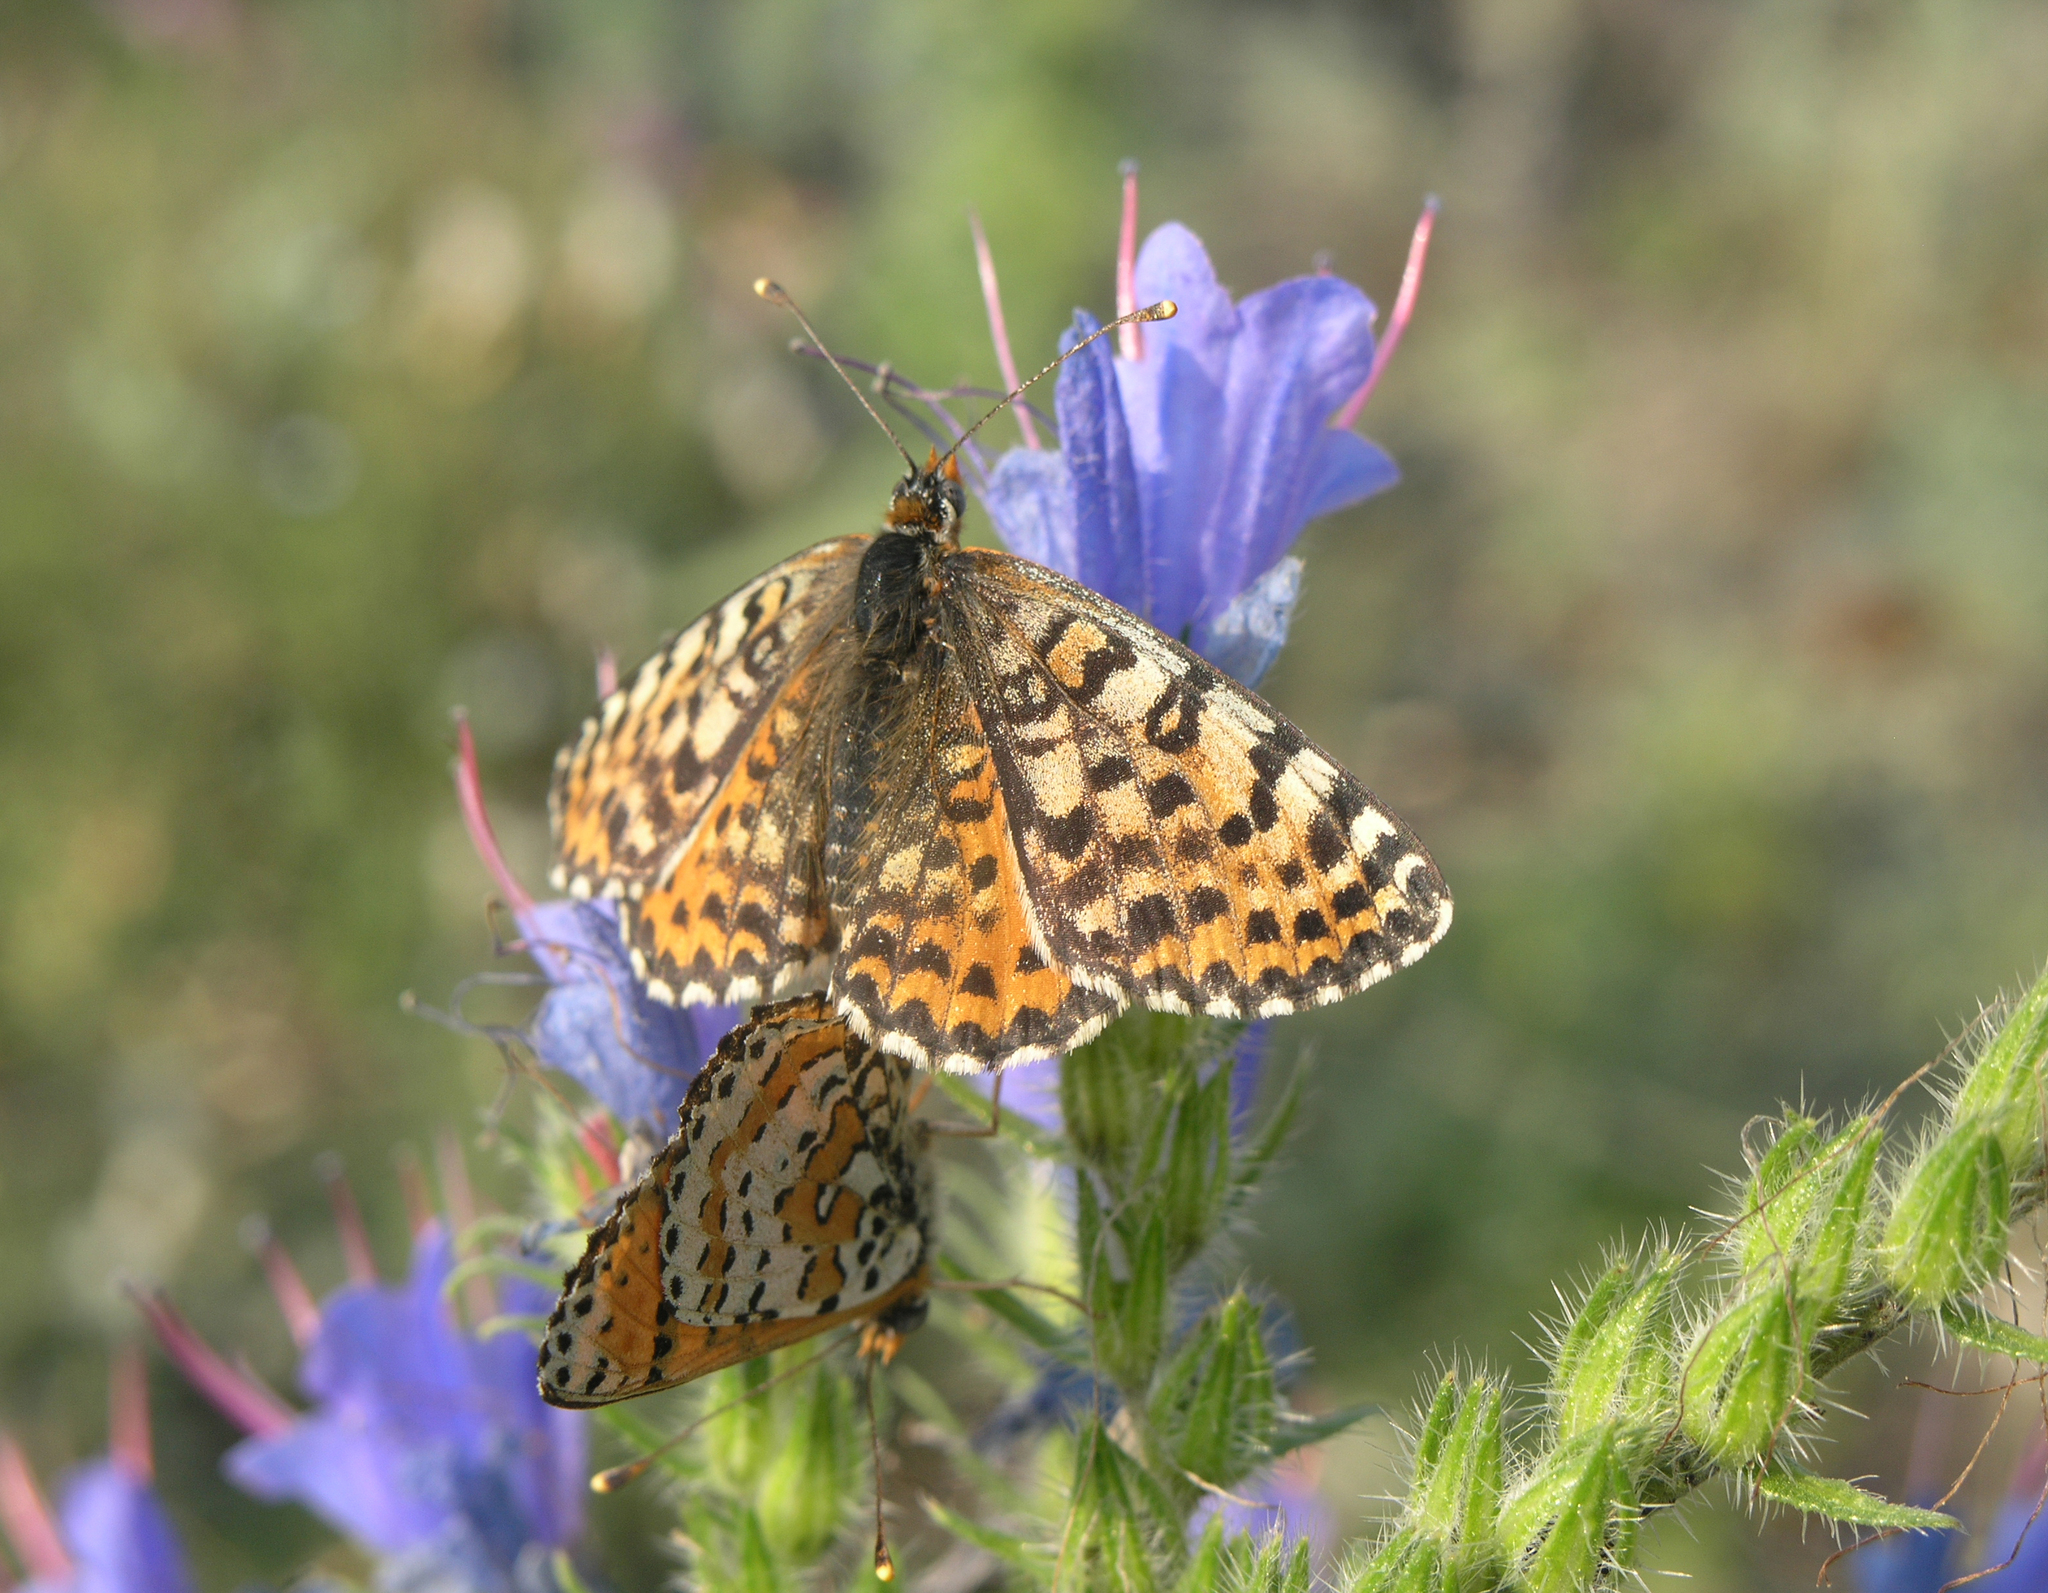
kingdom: Animalia
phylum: Arthropoda
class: Insecta
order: Lepidoptera
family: Nymphalidae
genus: Melitaea
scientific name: Melitaea didyma
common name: Spotted fritillary
